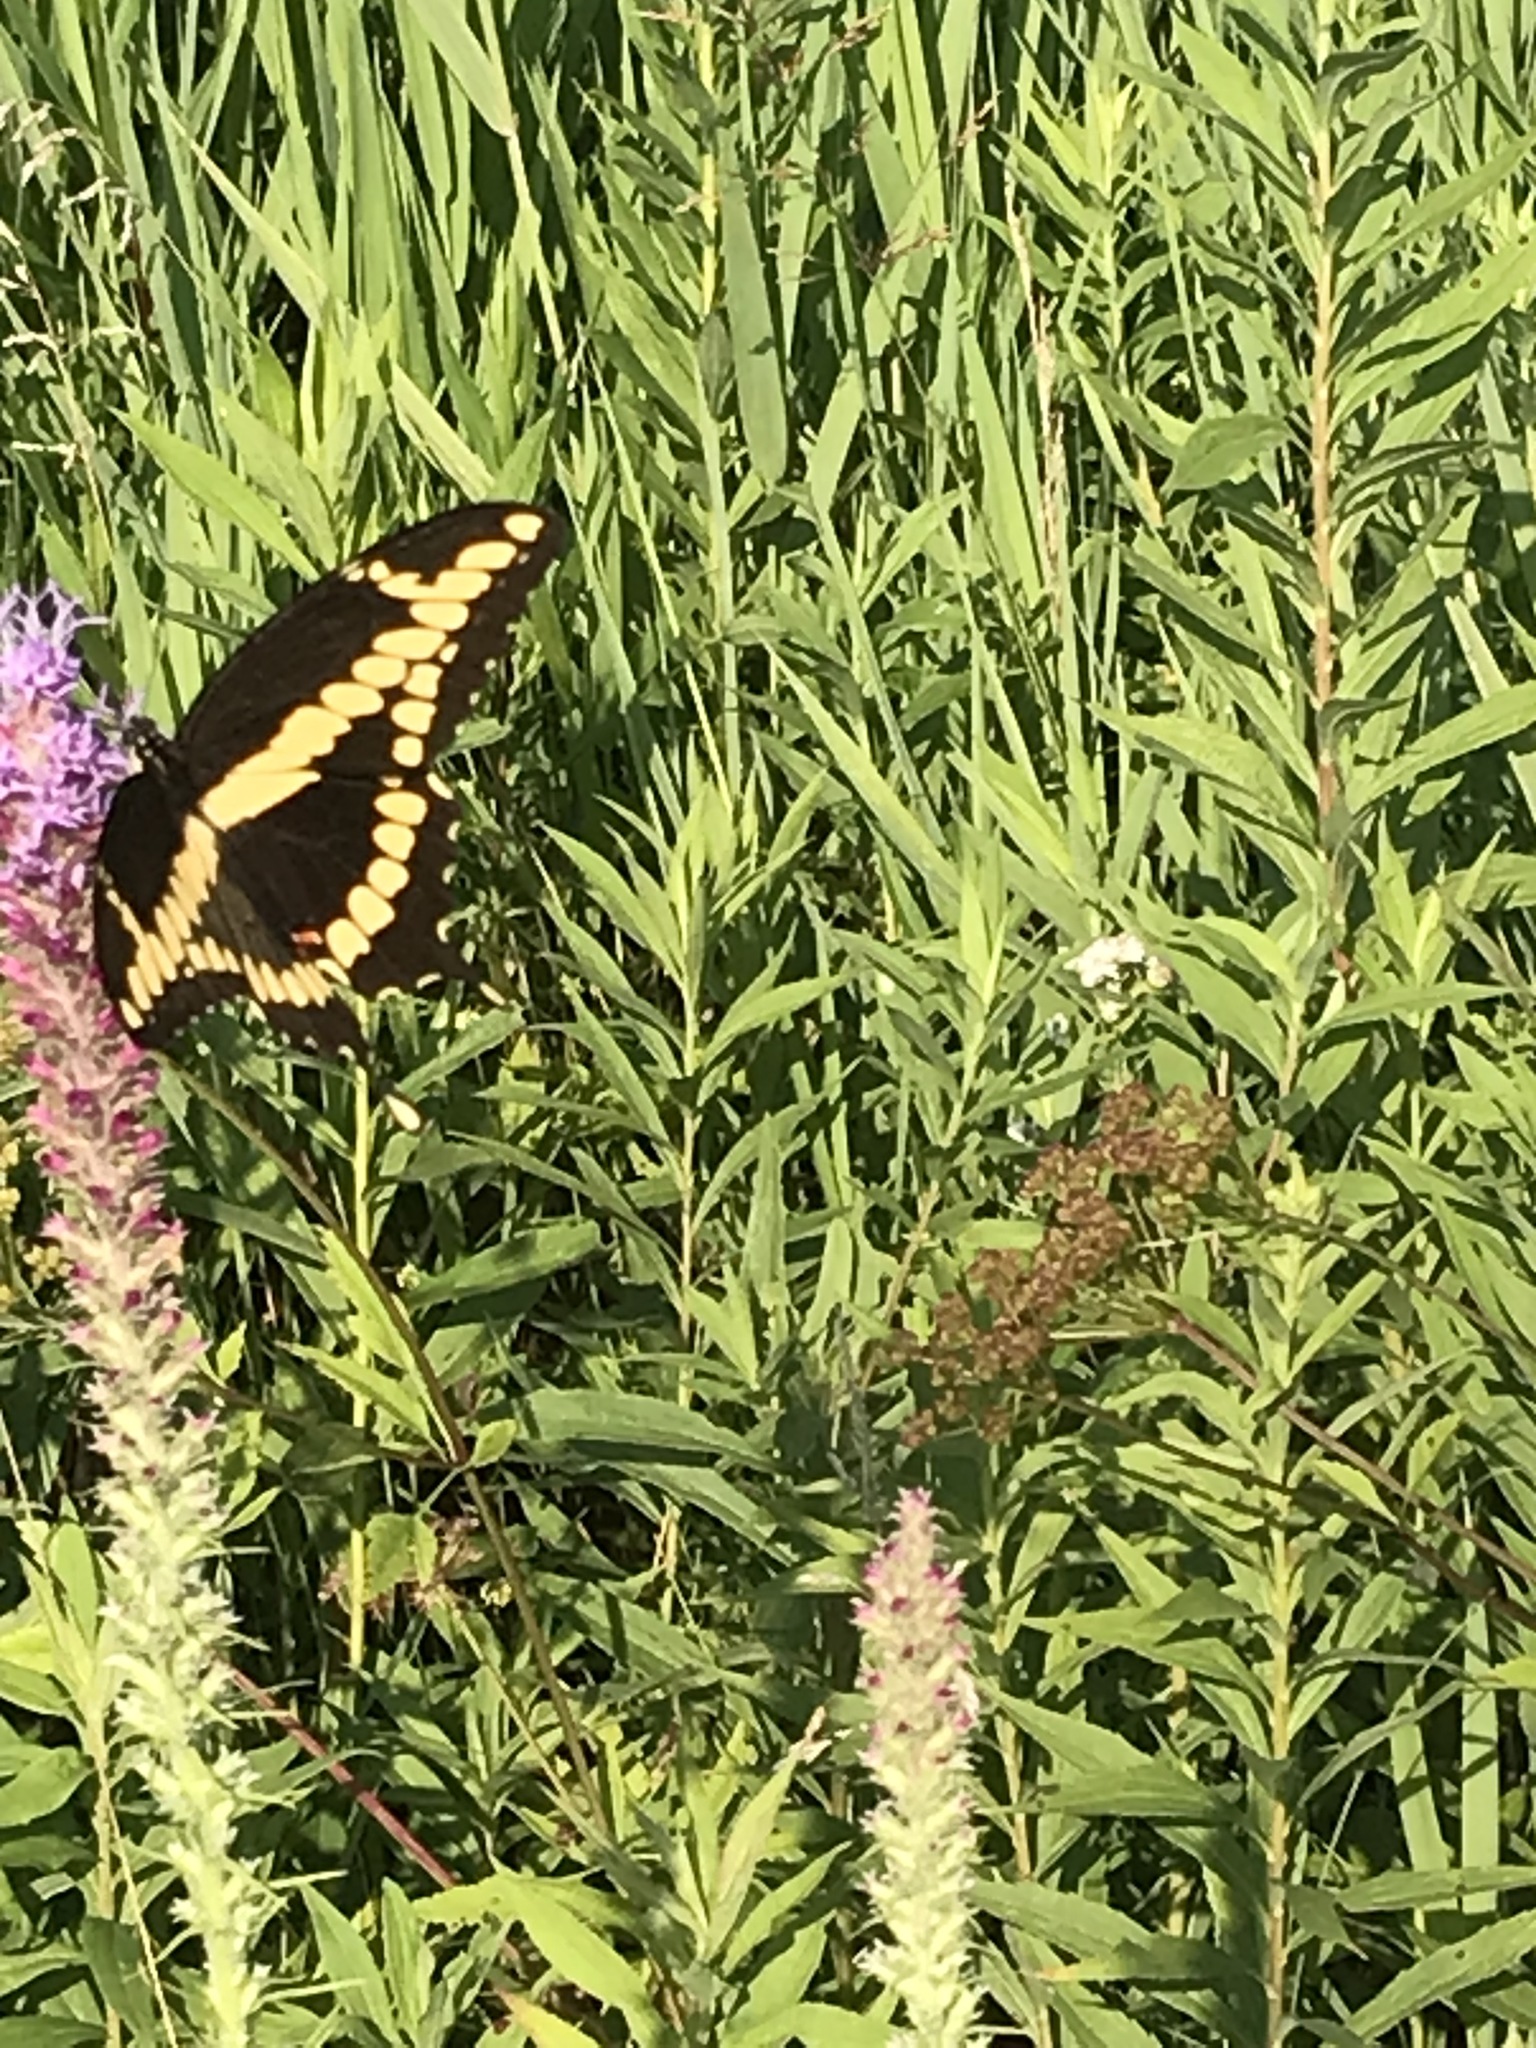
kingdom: Animalia
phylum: Arthropoda
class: Insecta
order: Lepidoptera
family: Papilionidae
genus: Papilio
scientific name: Papilio cresphontes
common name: Giant swallowtail
